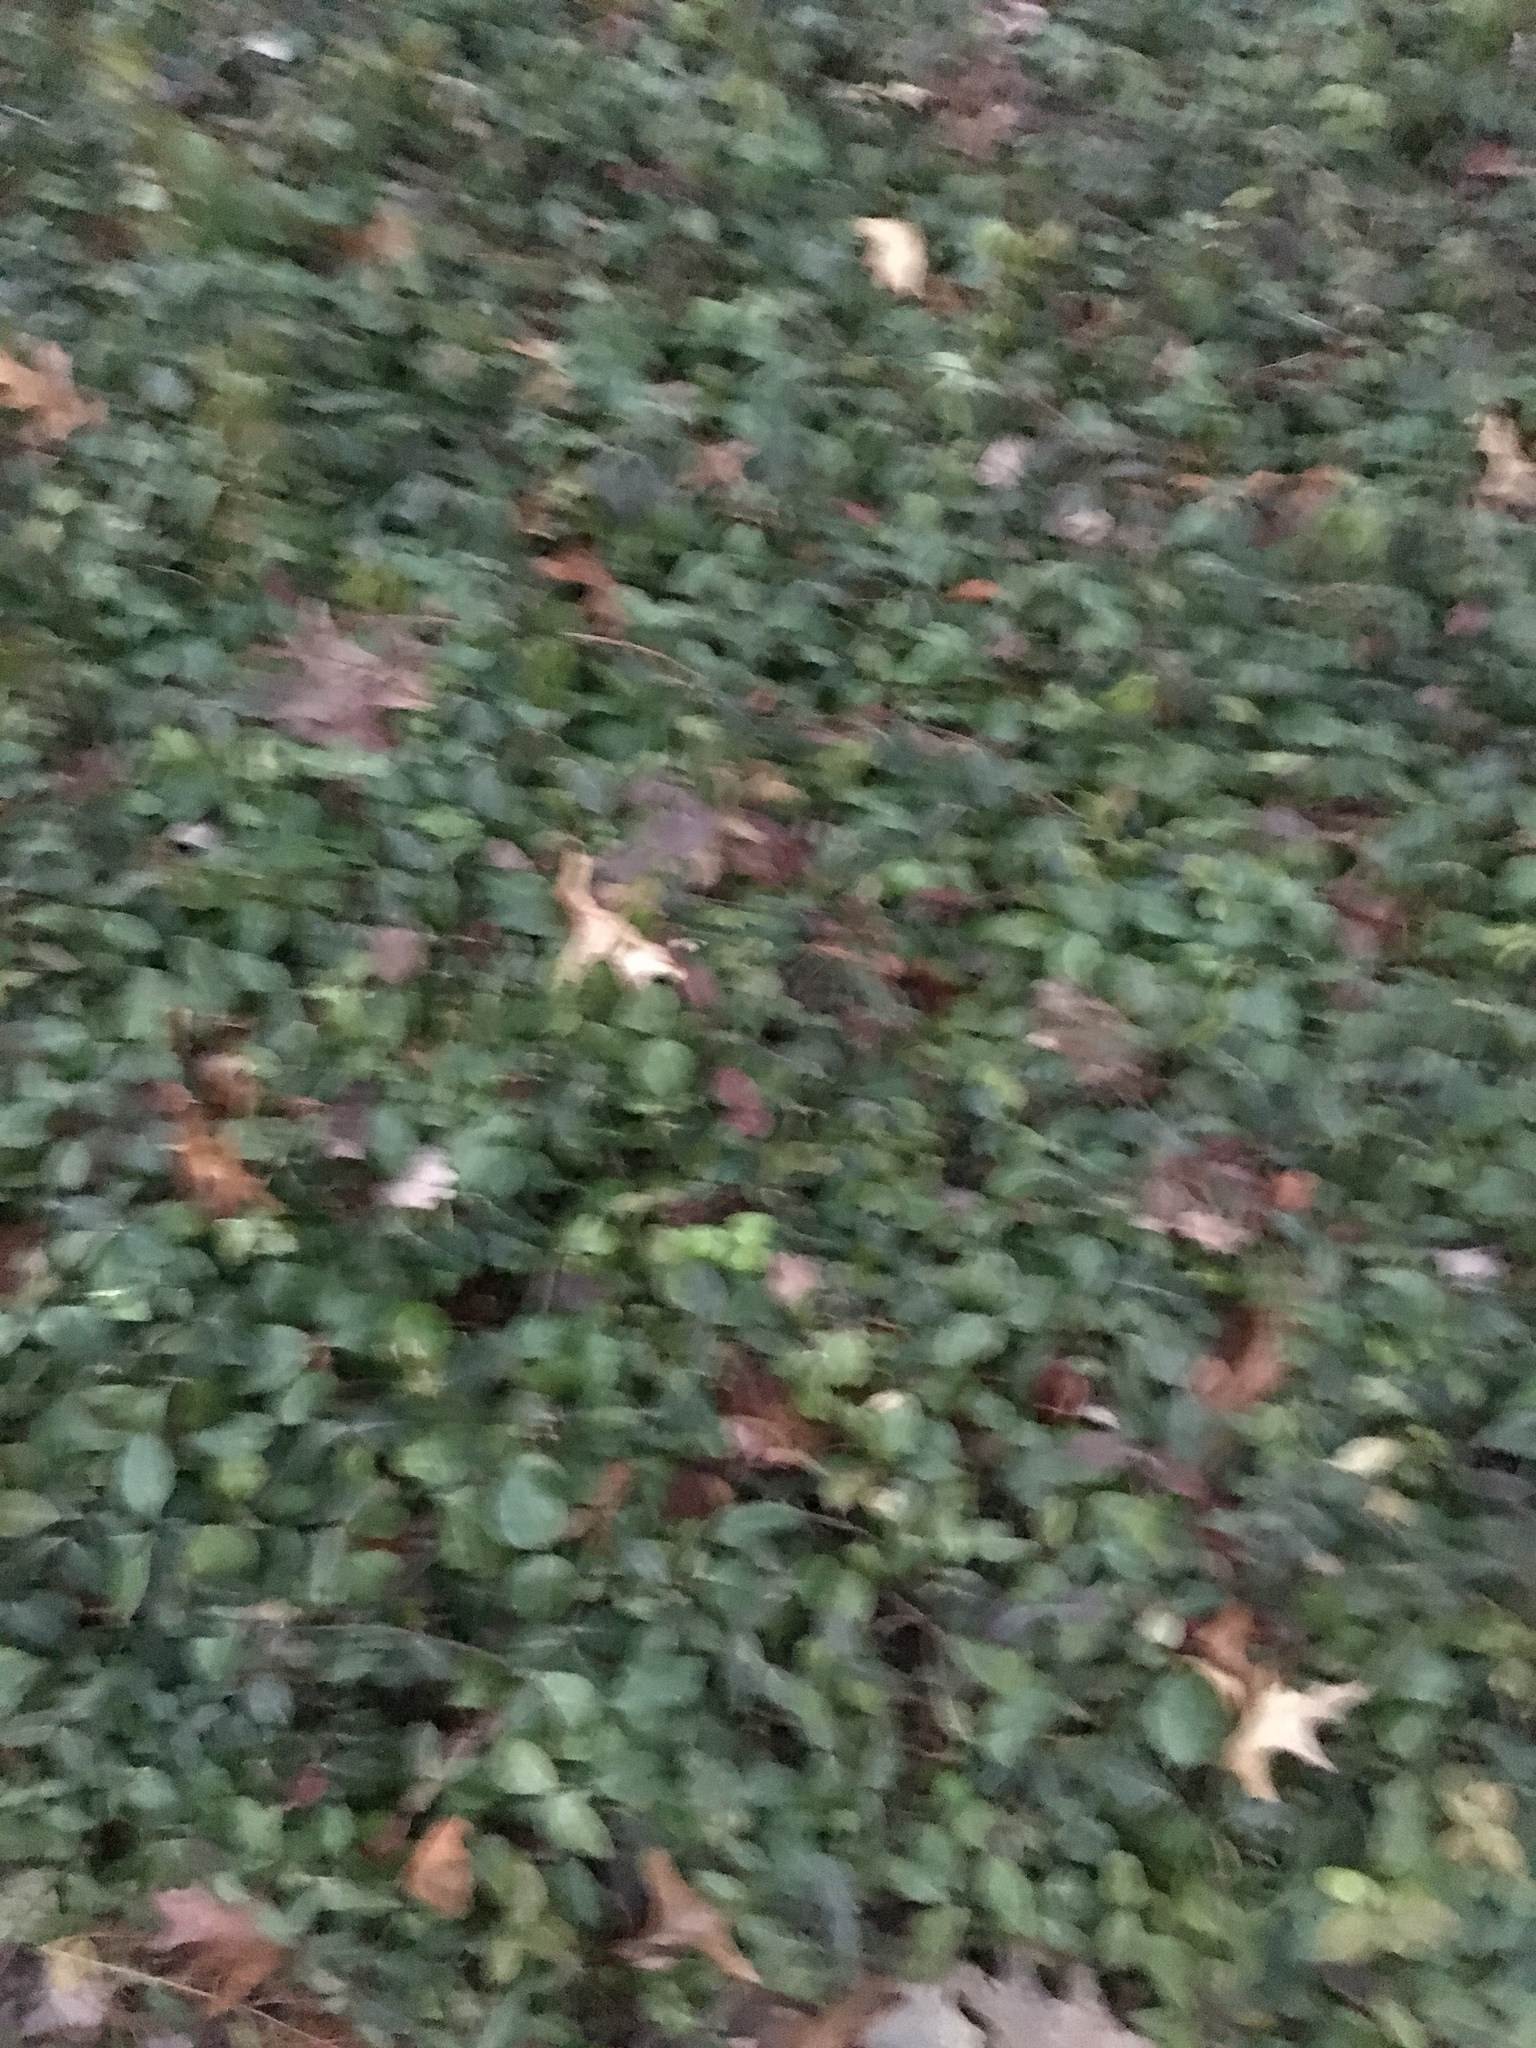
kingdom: Plantae
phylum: Tracheophyta
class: Magnoliopsida
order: Celastrales
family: Celastraceae
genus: Euonymus
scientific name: Euonymus fortunei
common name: Climbing euonymus
